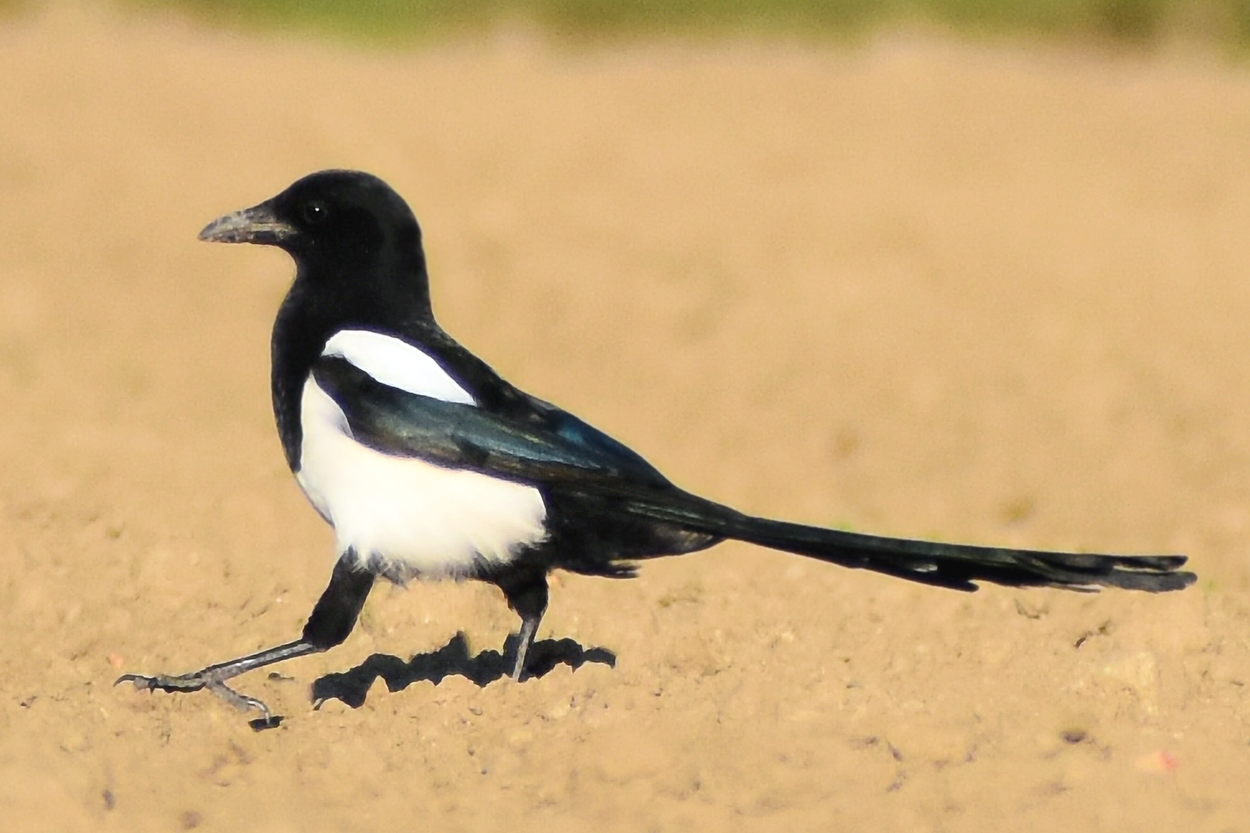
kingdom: Animalia
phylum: Chordata
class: Aves
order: Passeriformes
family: Corvidae
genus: Pica
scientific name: Pica pica
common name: Eurasian magpie
